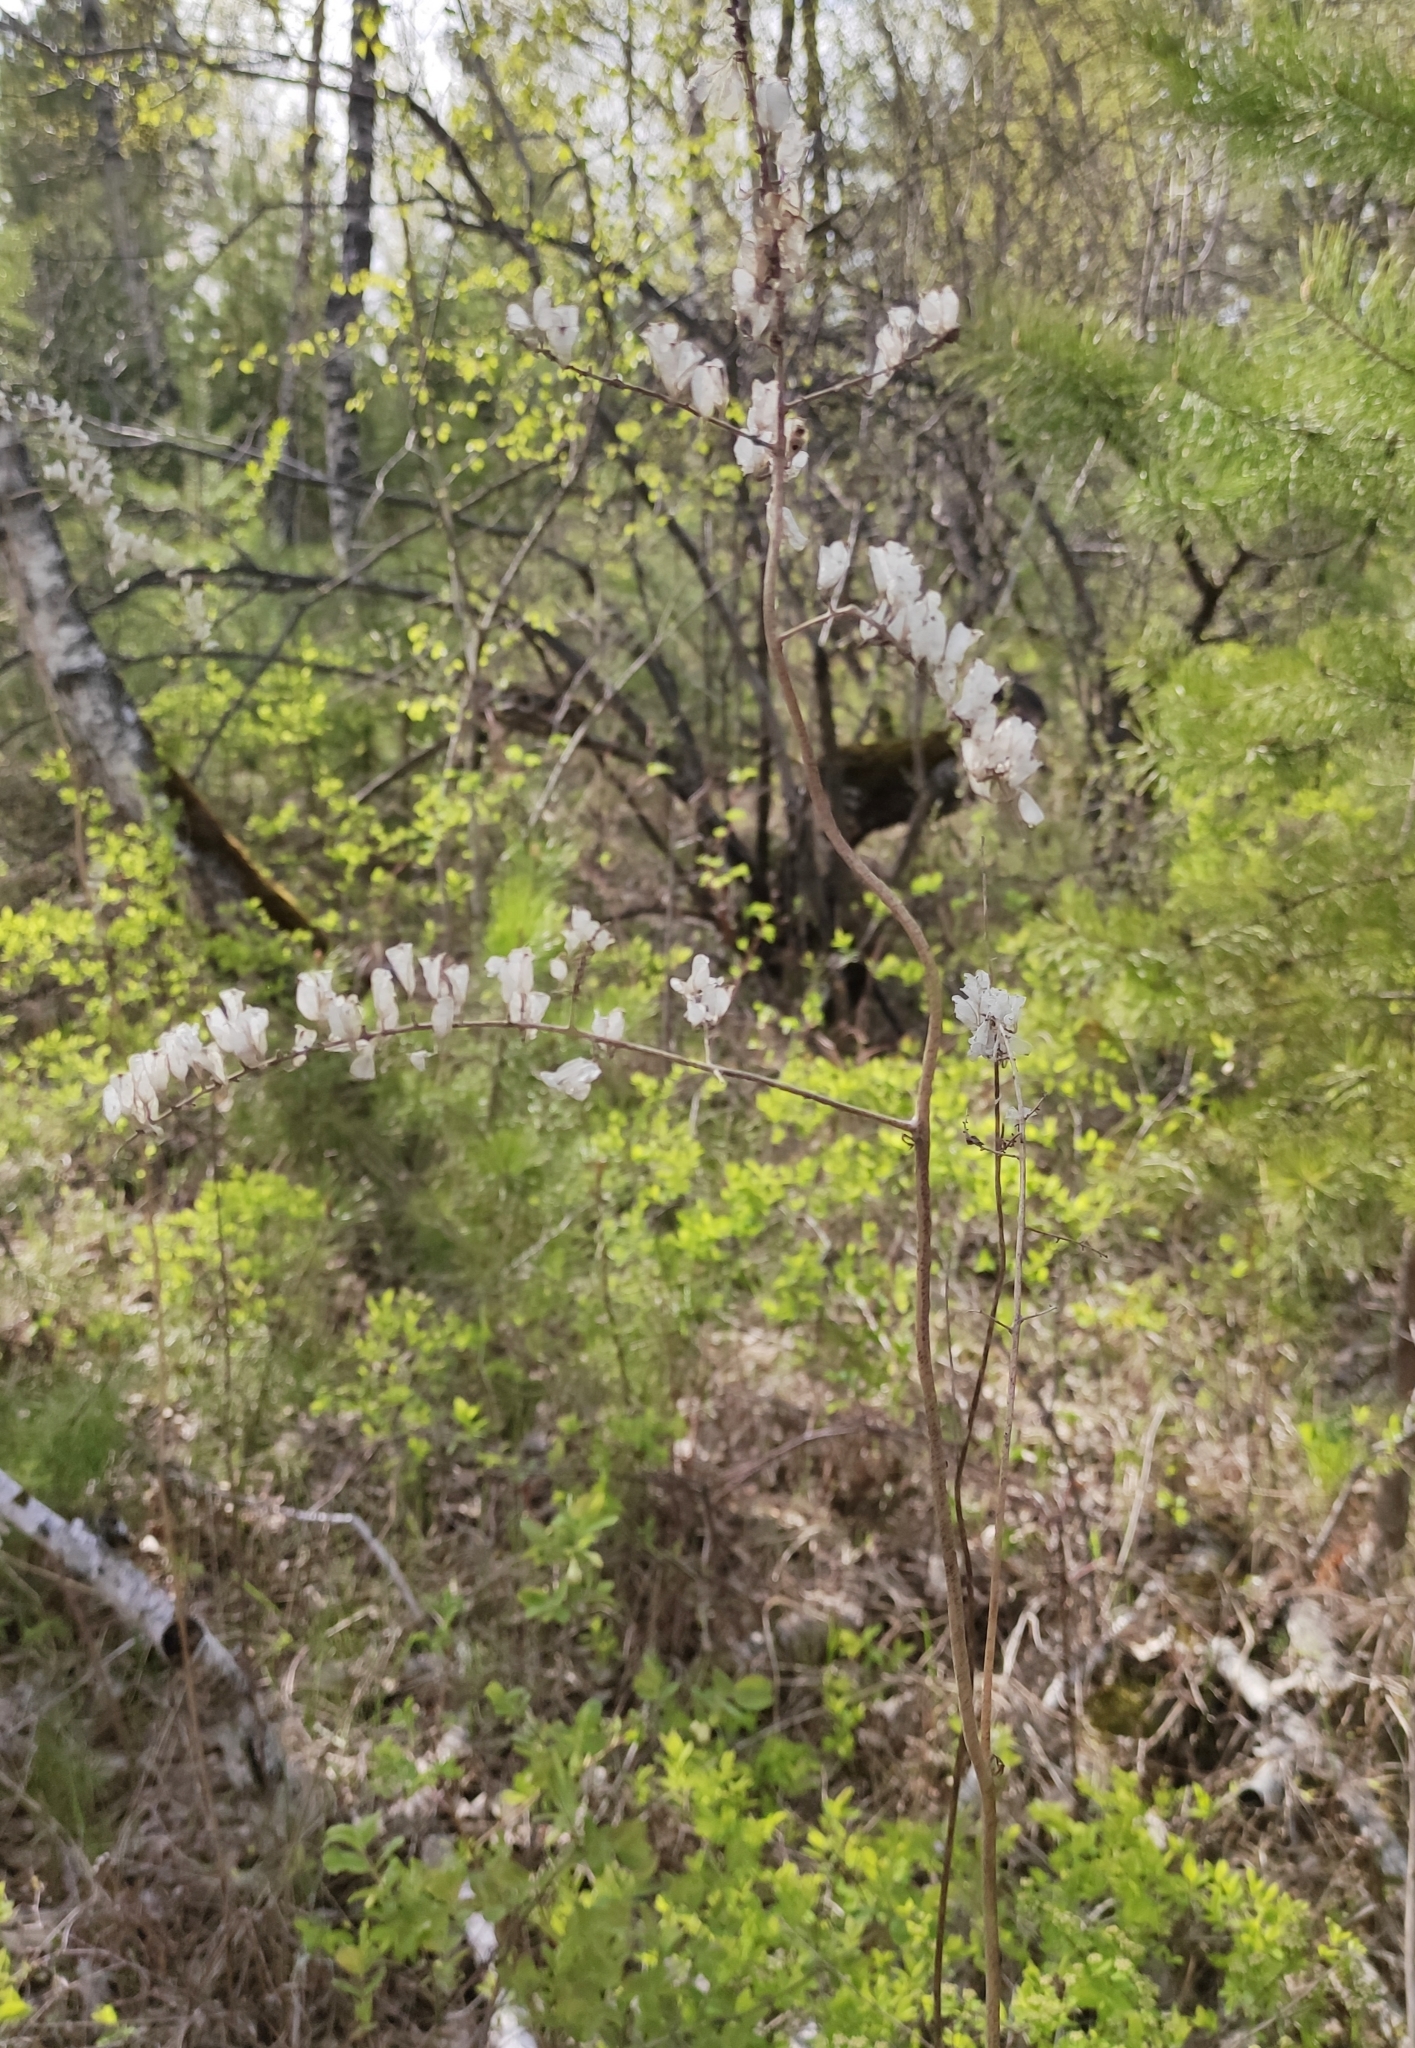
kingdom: Plantae
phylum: Tracheophyta
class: Magnoliopsida
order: Ranunculales
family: Ranunculaceae
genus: Actaea
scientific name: Actaea cimicifuga
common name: Chinese cimicifuga
